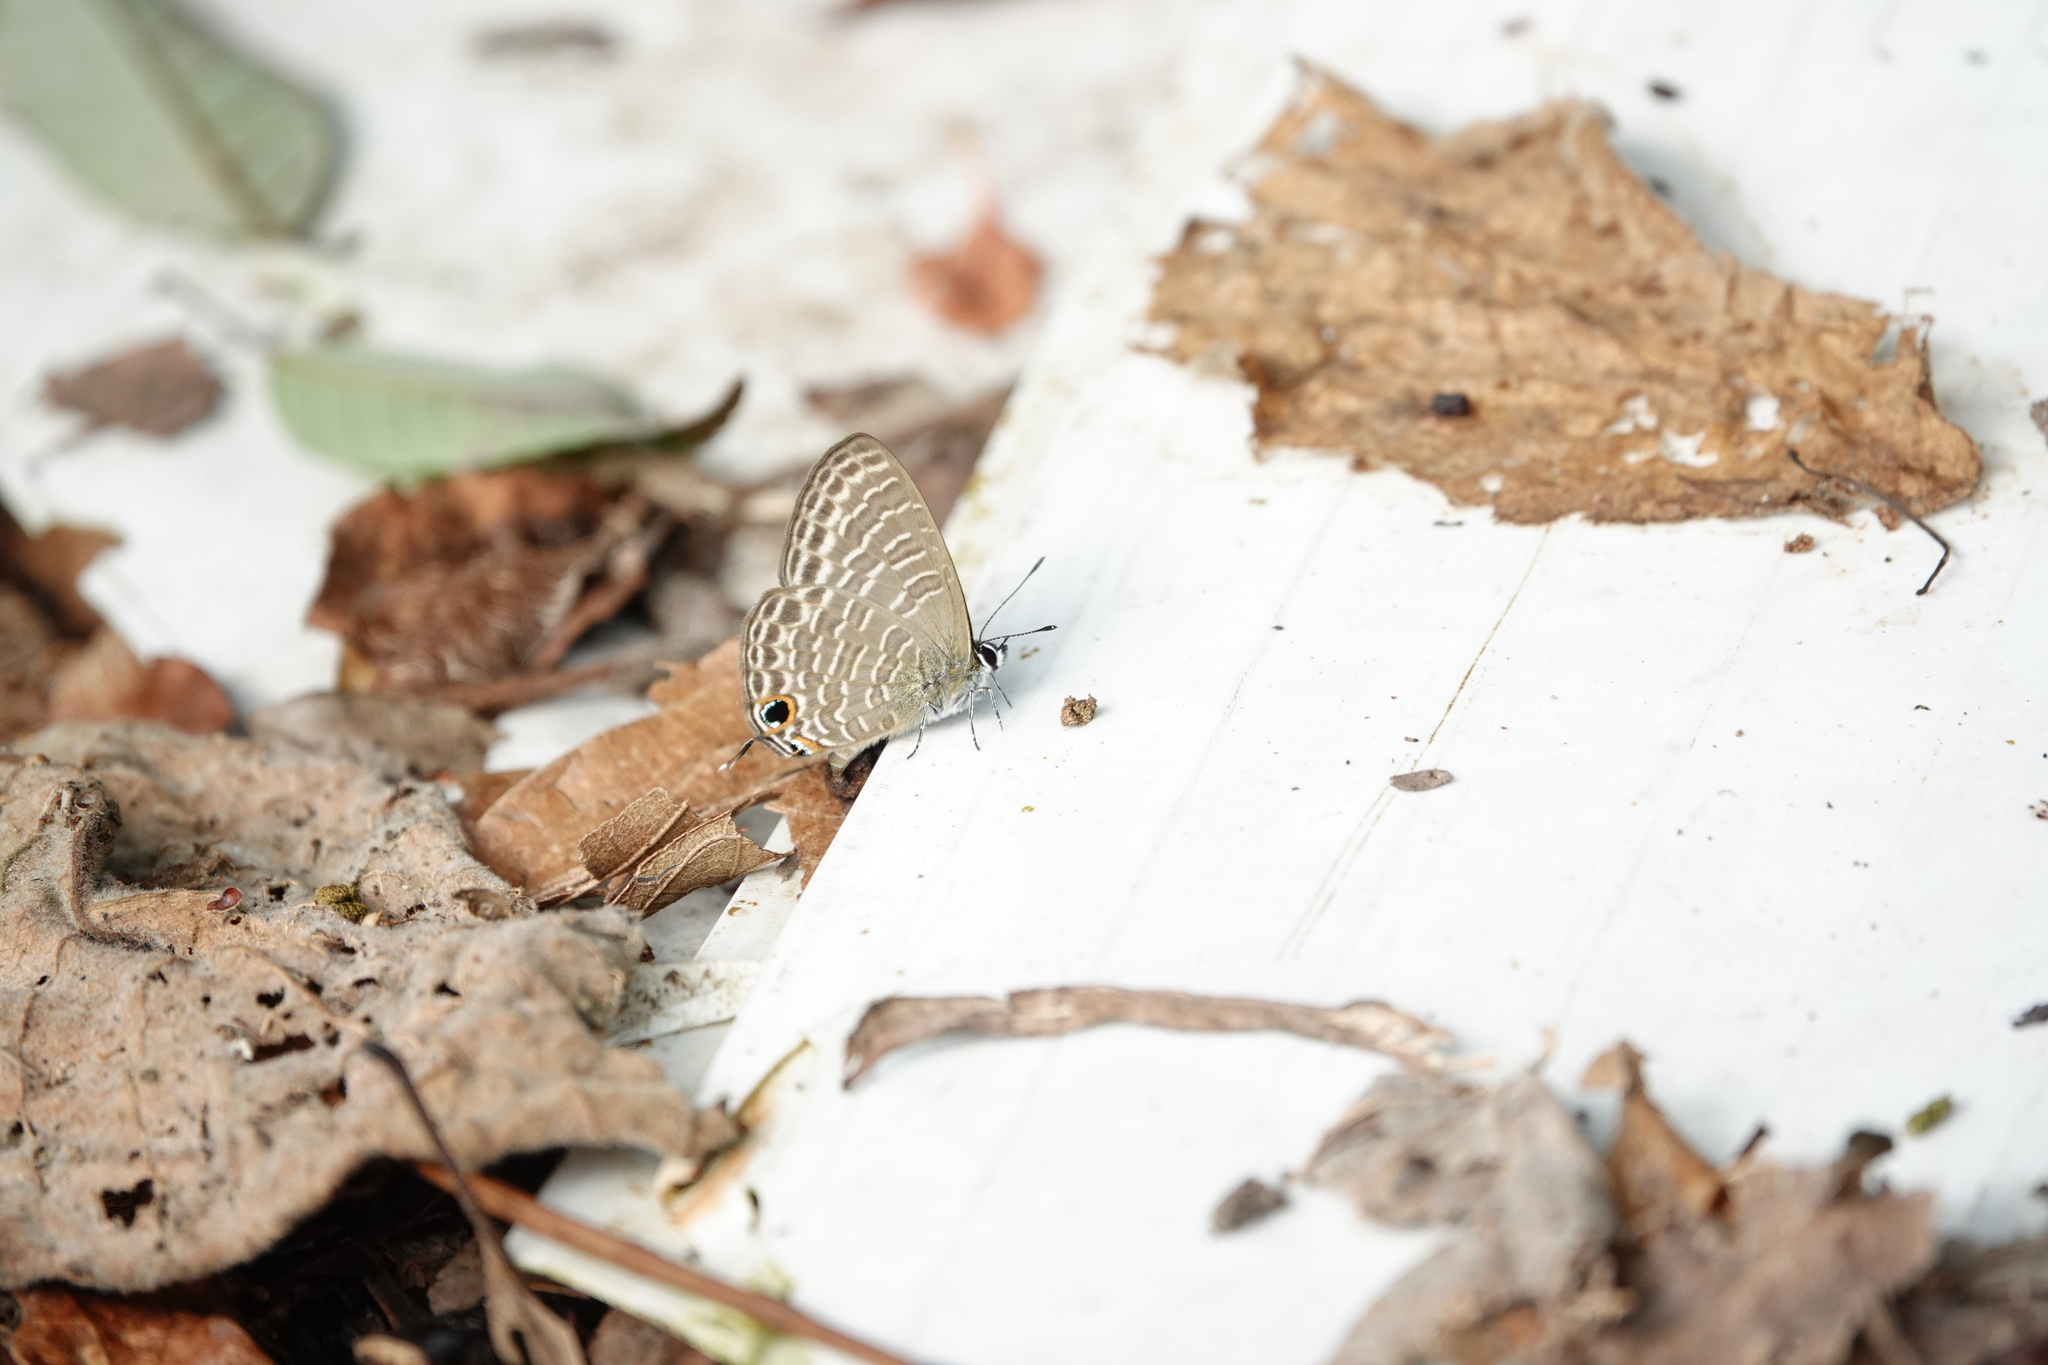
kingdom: Animalia
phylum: Arthropoda
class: Insecta
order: Lepidoptera
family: Lycaenidae
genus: Nacaduba
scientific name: Nacaduba kurava
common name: Transparent 6-line blue
